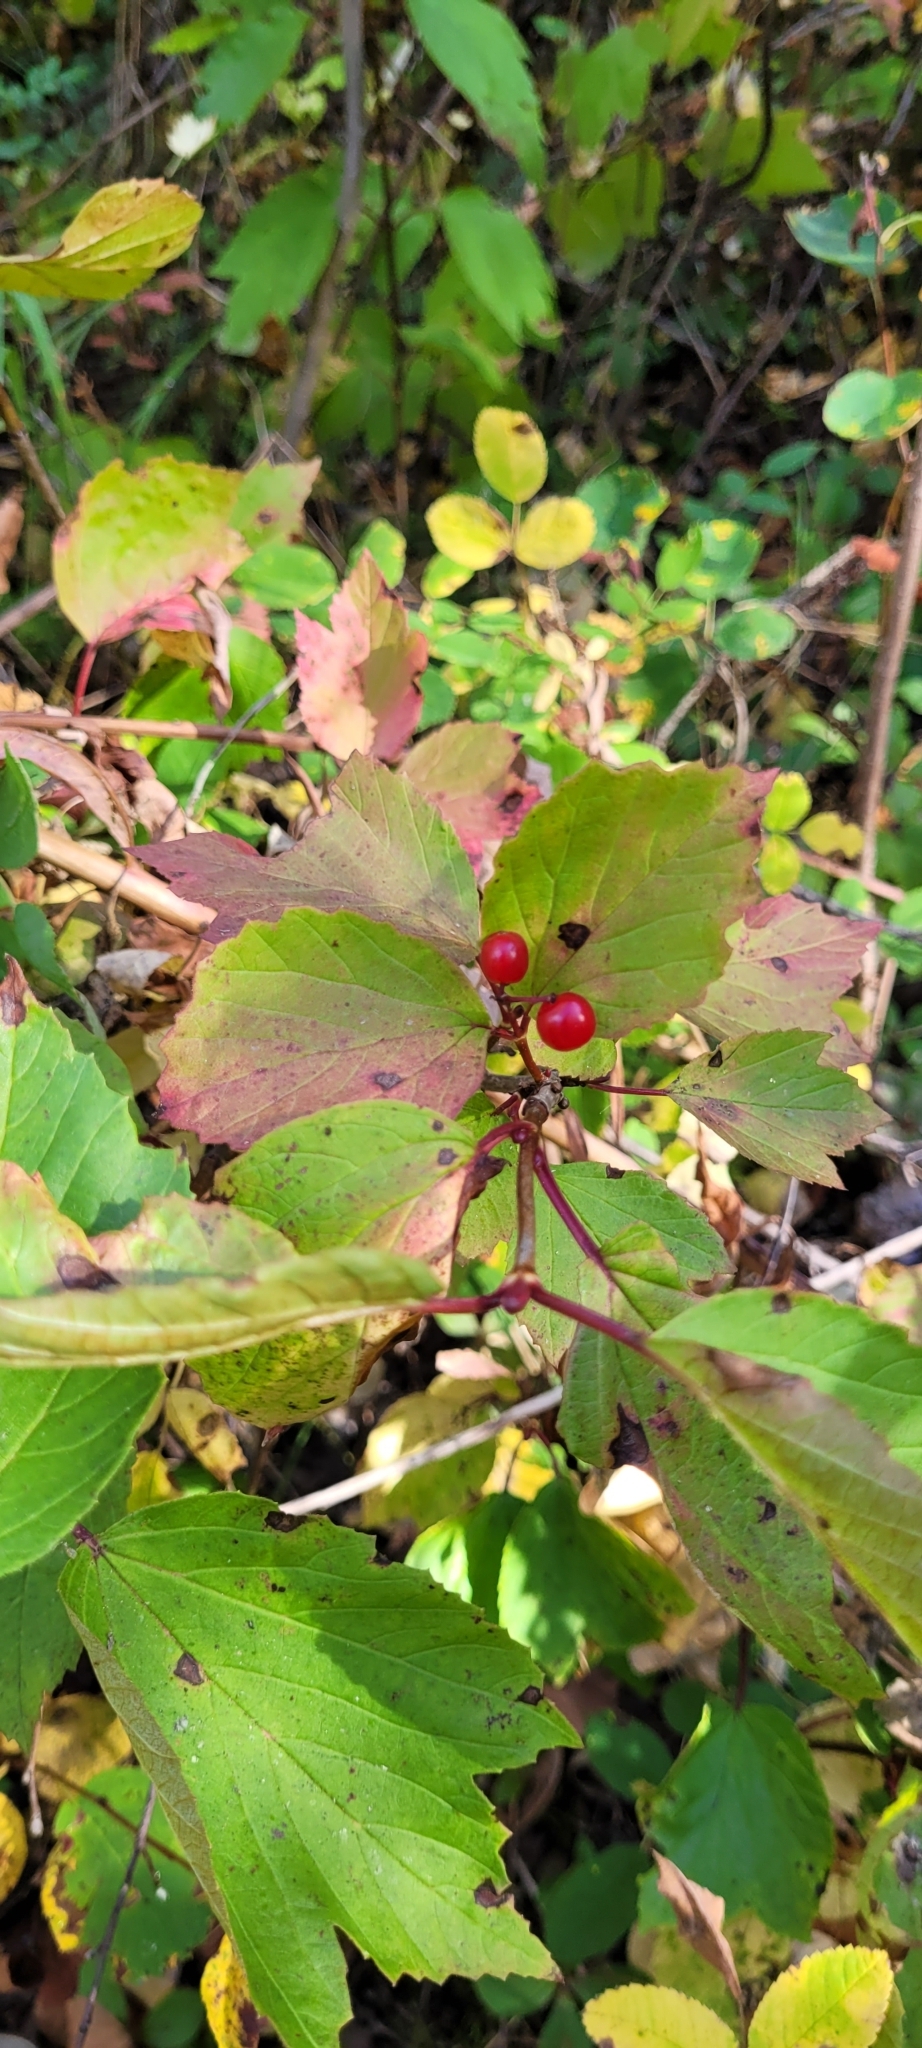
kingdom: Plantae
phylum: Tracheophyta
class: Magnoliopsida
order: Dipsacales
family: Viburnaceae
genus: Viburnum
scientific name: Viburnum edule
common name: Mooseberry
